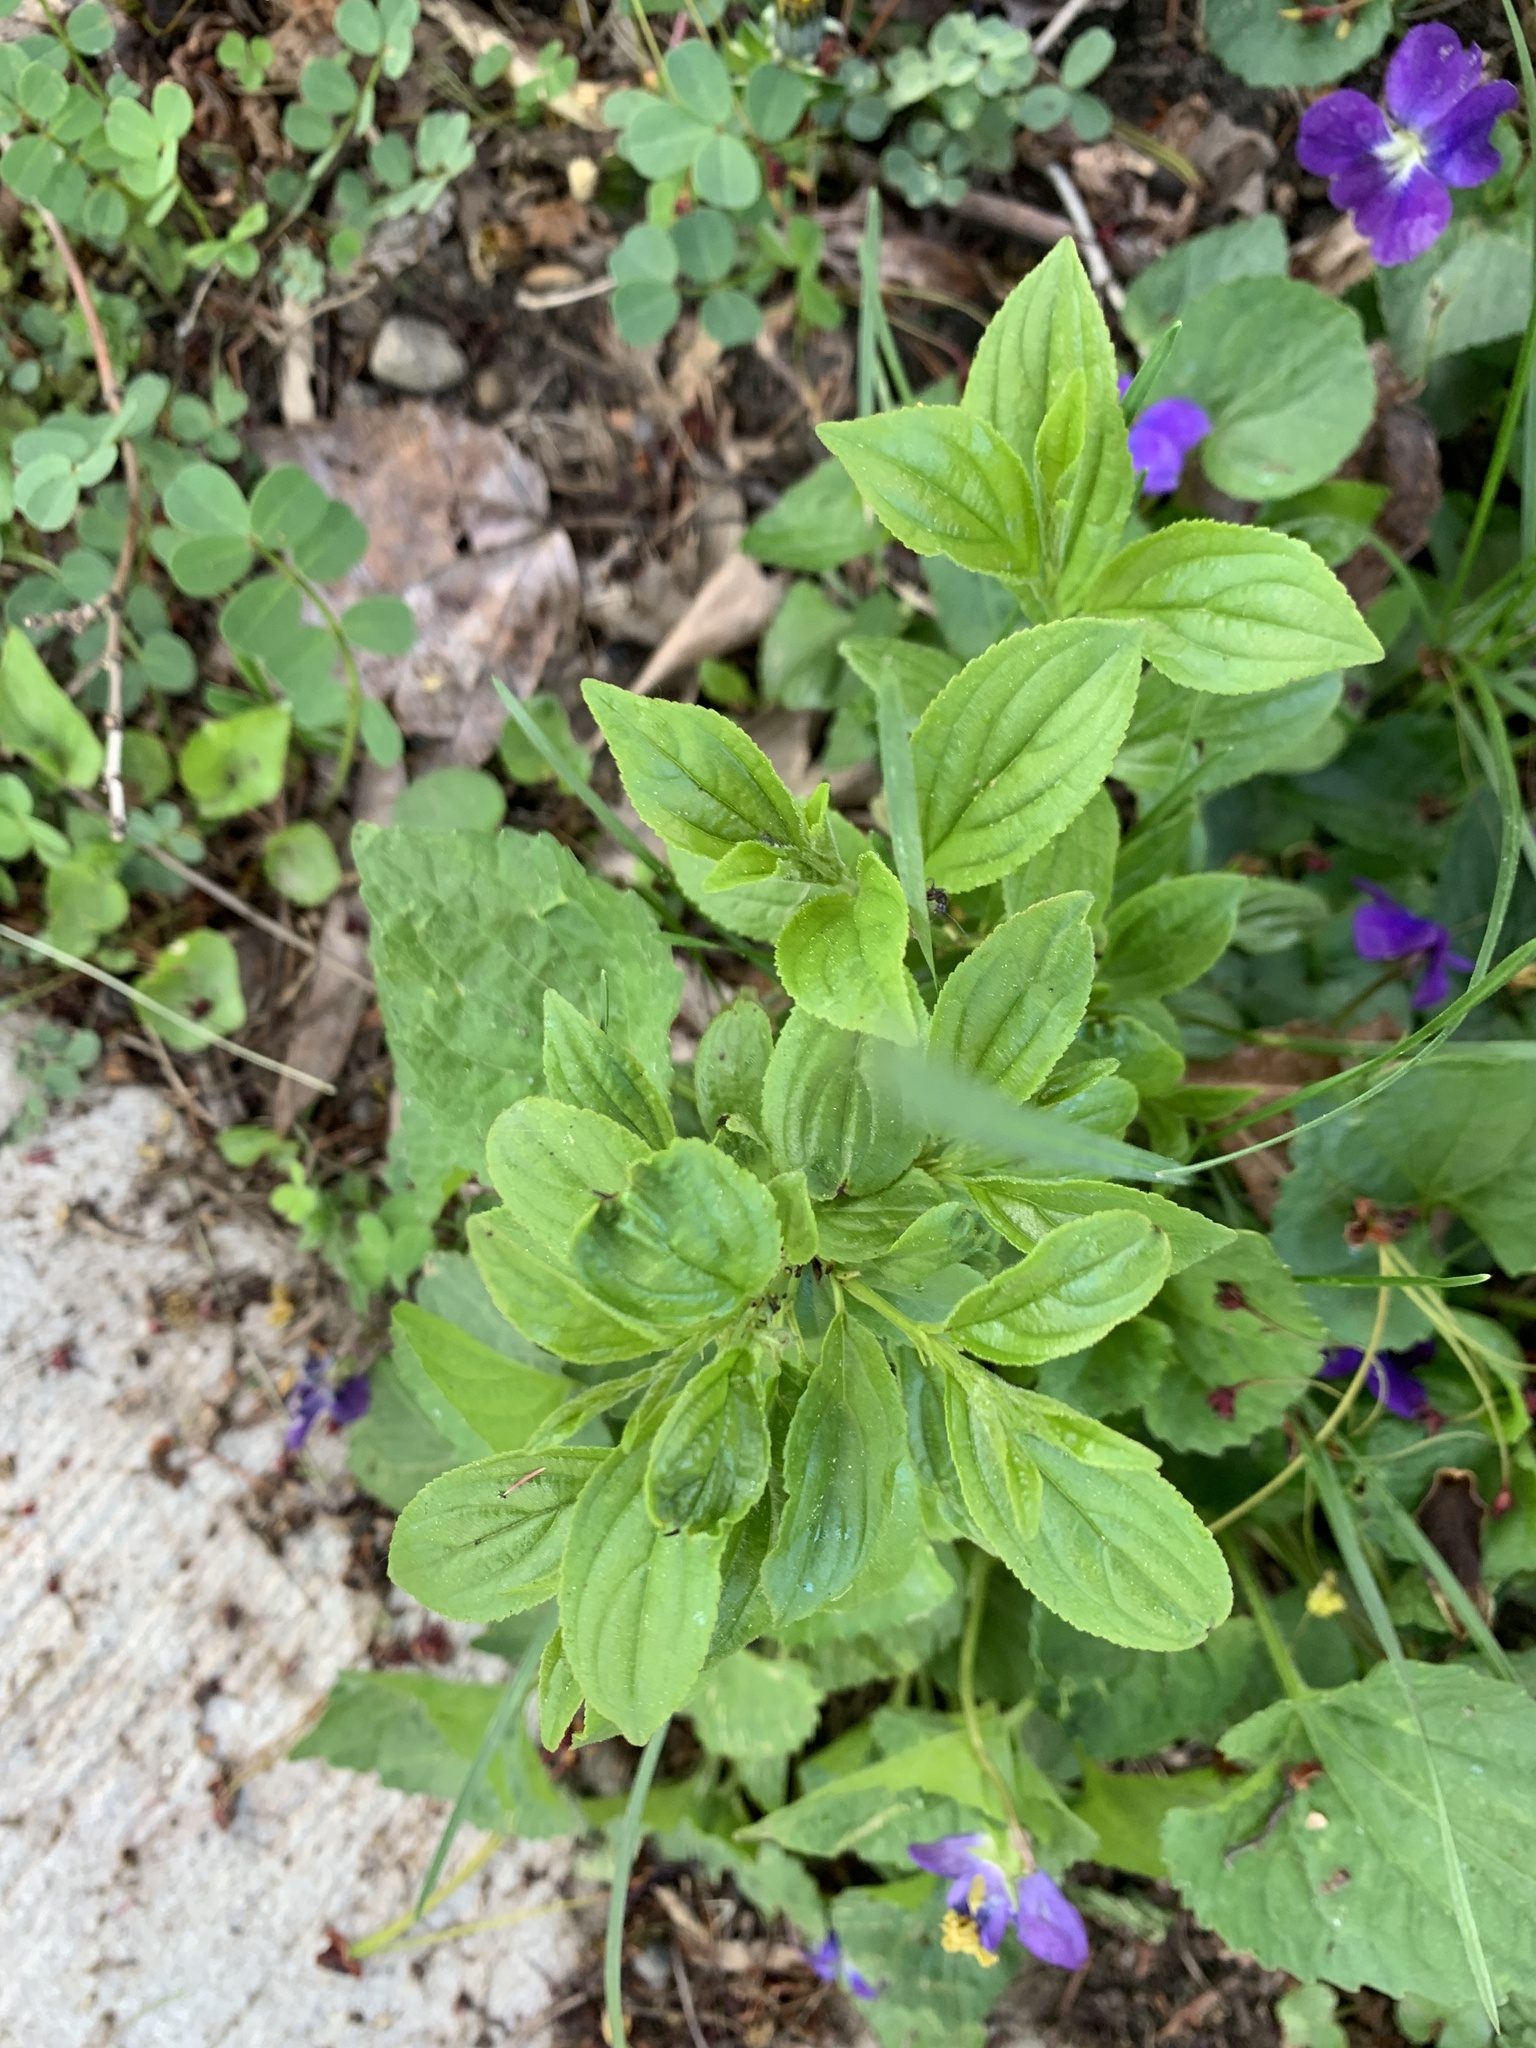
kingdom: Plantae
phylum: Tracheophyta
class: Magnoliopsida
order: Rosales
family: Rhamnaceae
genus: Rhamnus
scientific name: Rhamnus cathartica
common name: Common buckthorn
